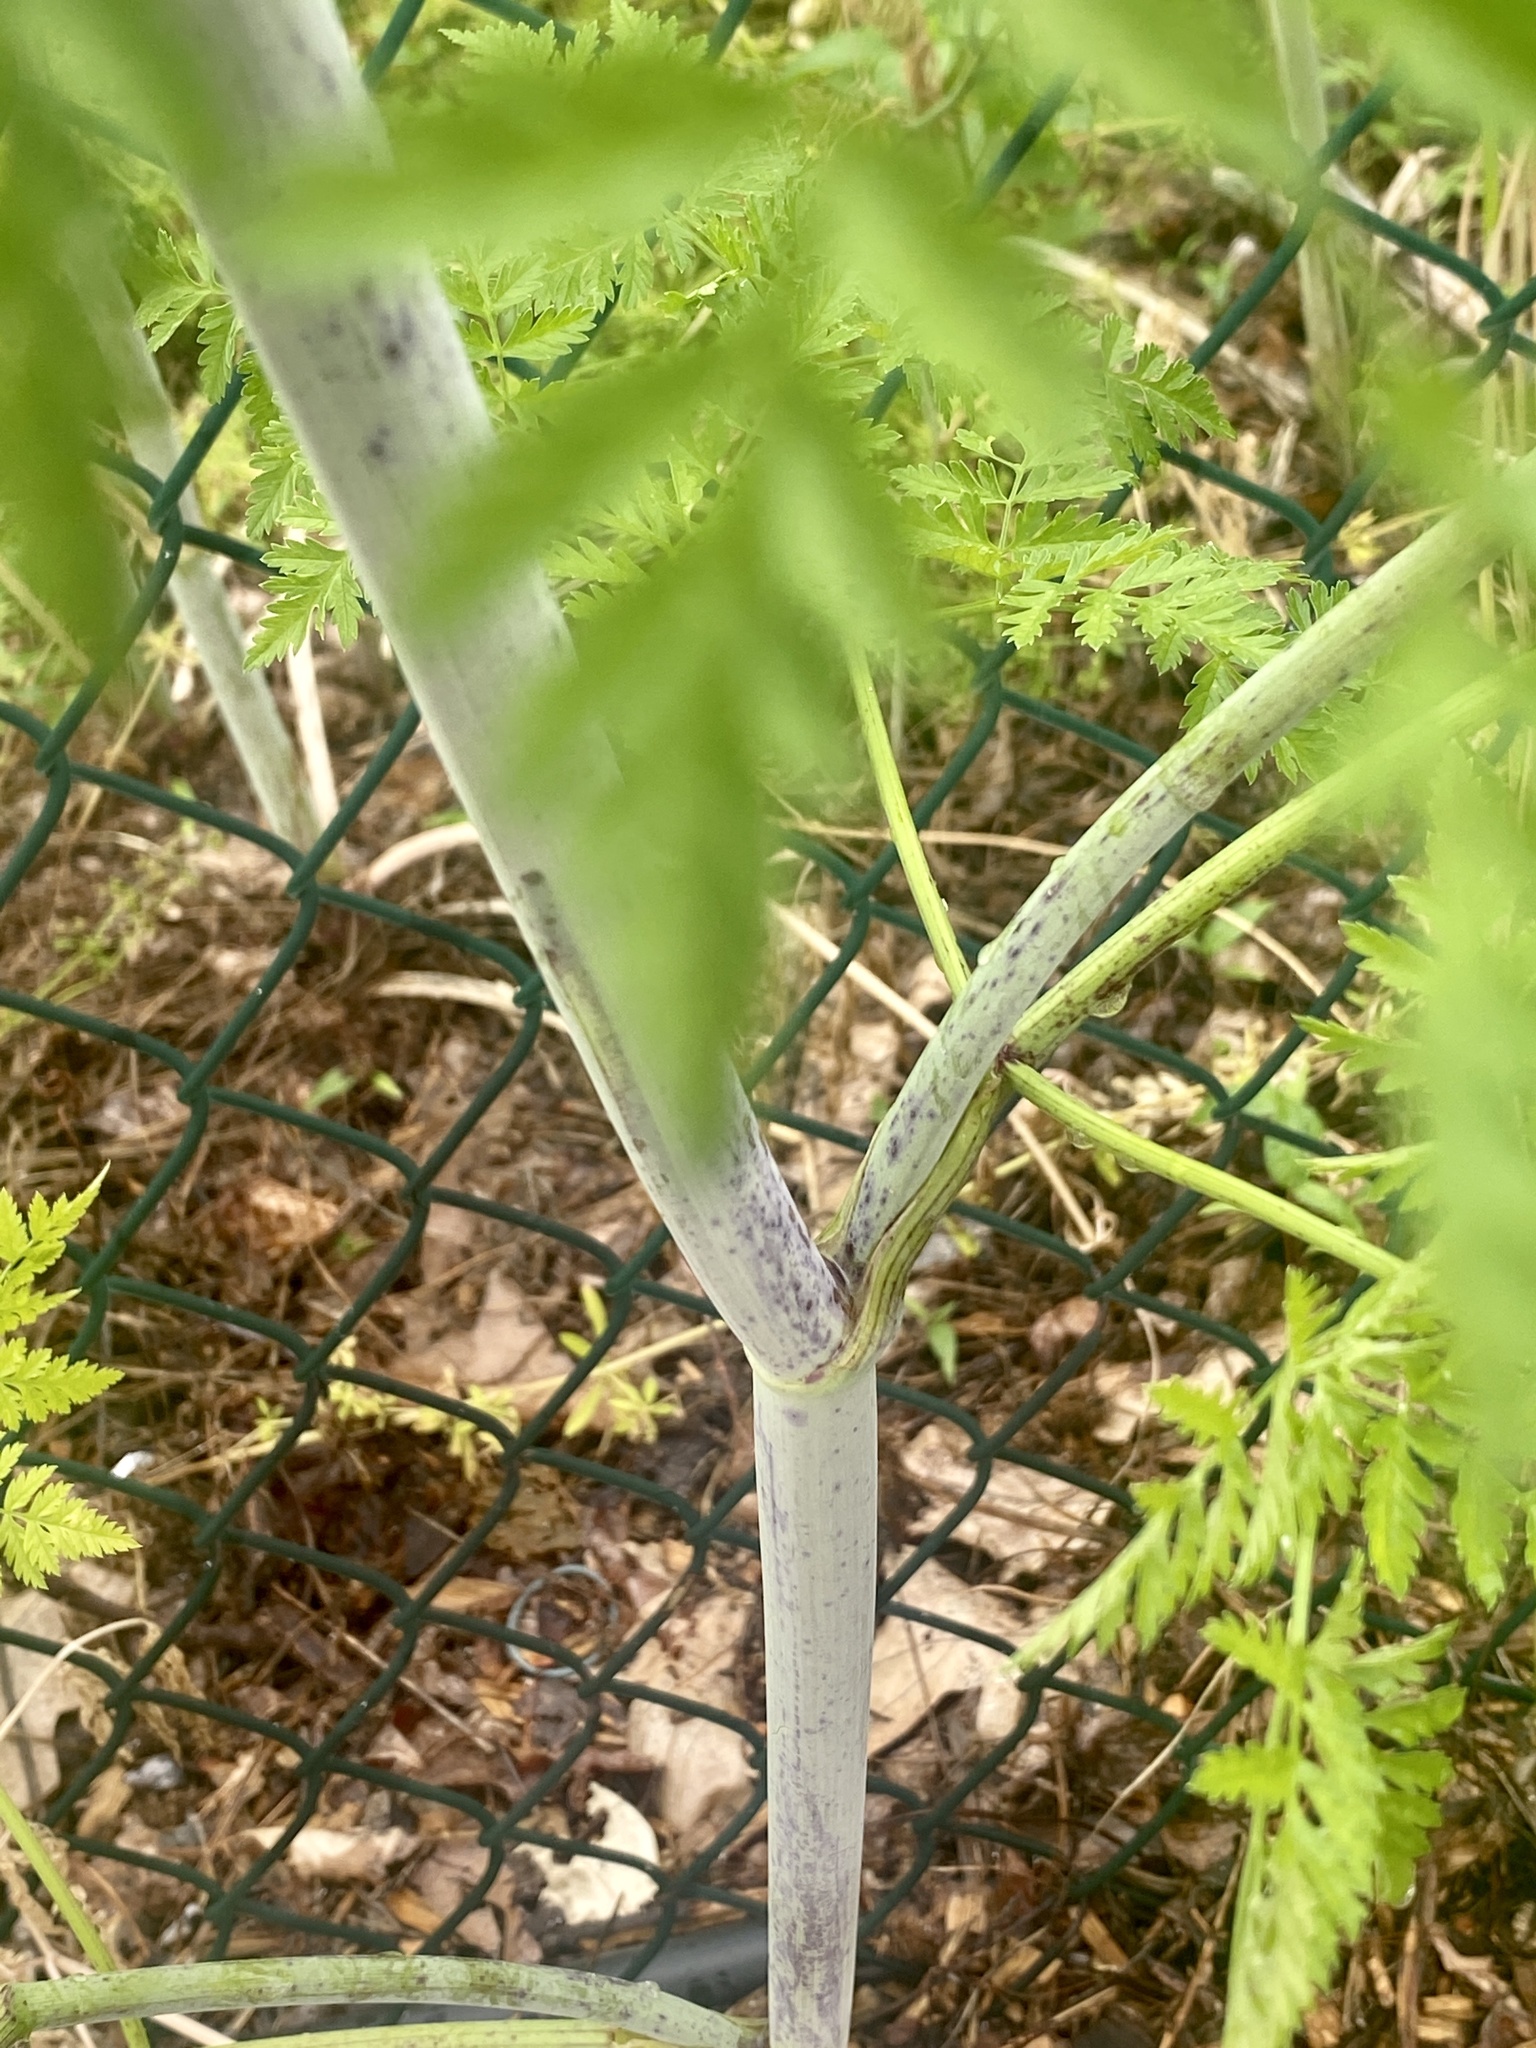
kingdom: Plantae
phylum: Tracheophyta
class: Magnoliopsida
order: Apiales
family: Apiaceae
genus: Conium
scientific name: Conium maculatum
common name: Hemlock
